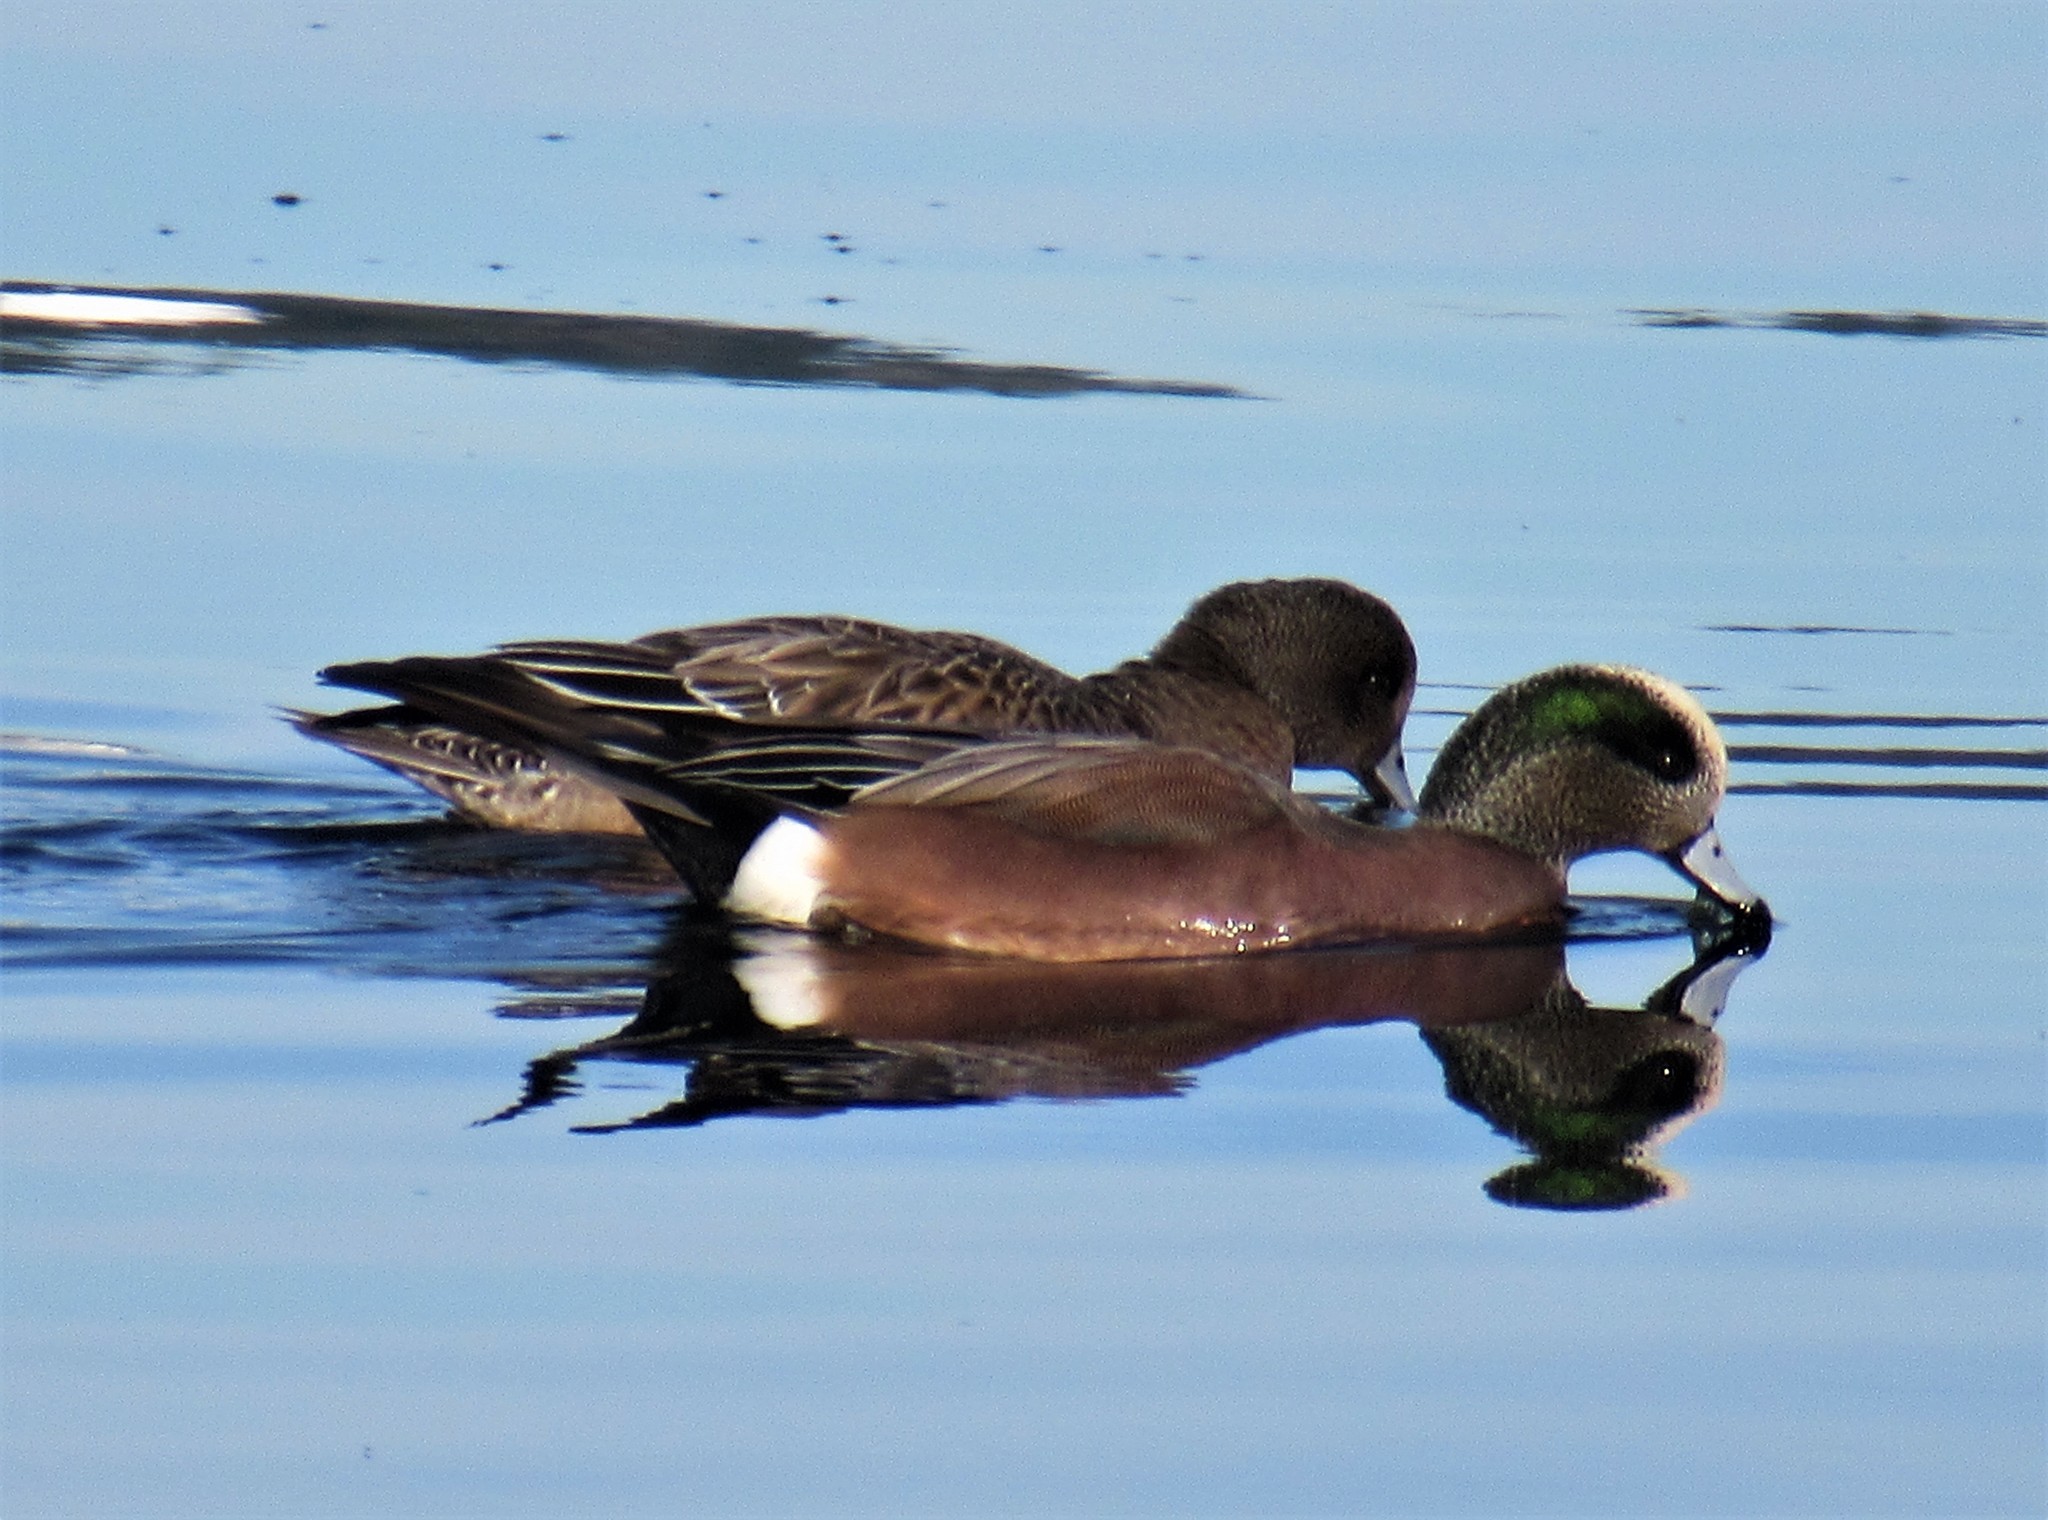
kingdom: Animalia
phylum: Chordata
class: Aves
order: Anseriformes
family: Anatidae
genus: Mareca
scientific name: Mareca americana
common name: American wigeon
